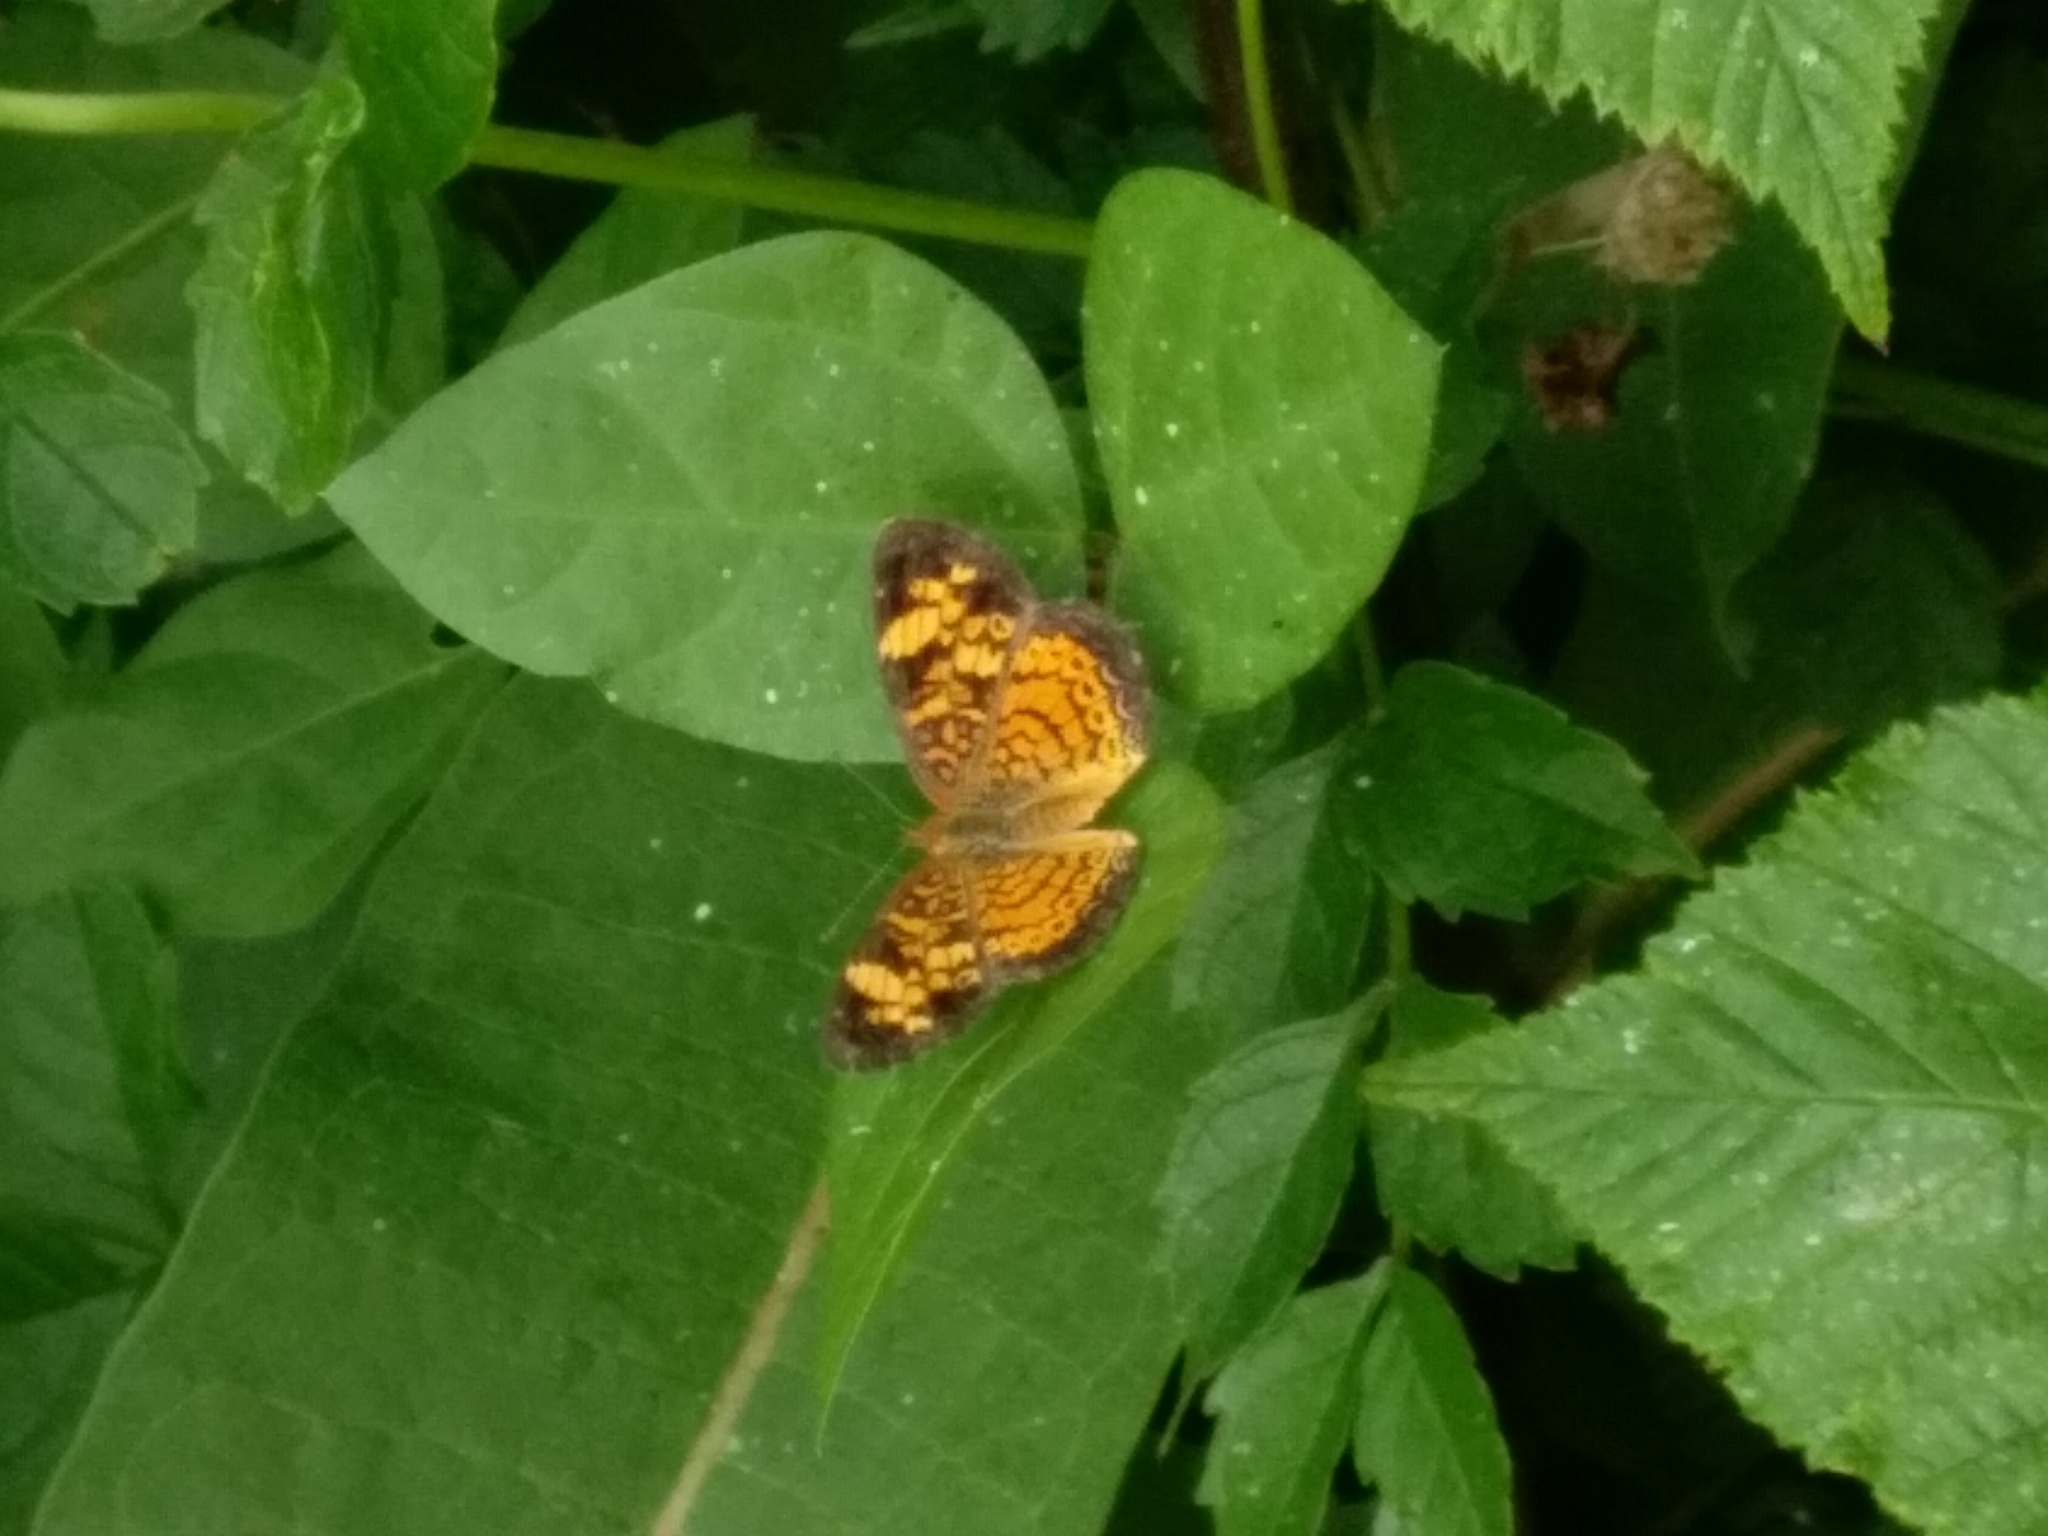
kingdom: Animalia
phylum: Arthropoda
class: Insecta
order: Lepidoptera
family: Nymphalidae
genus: Phyciodes
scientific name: Phyciodes tharos
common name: Pearl crescent
